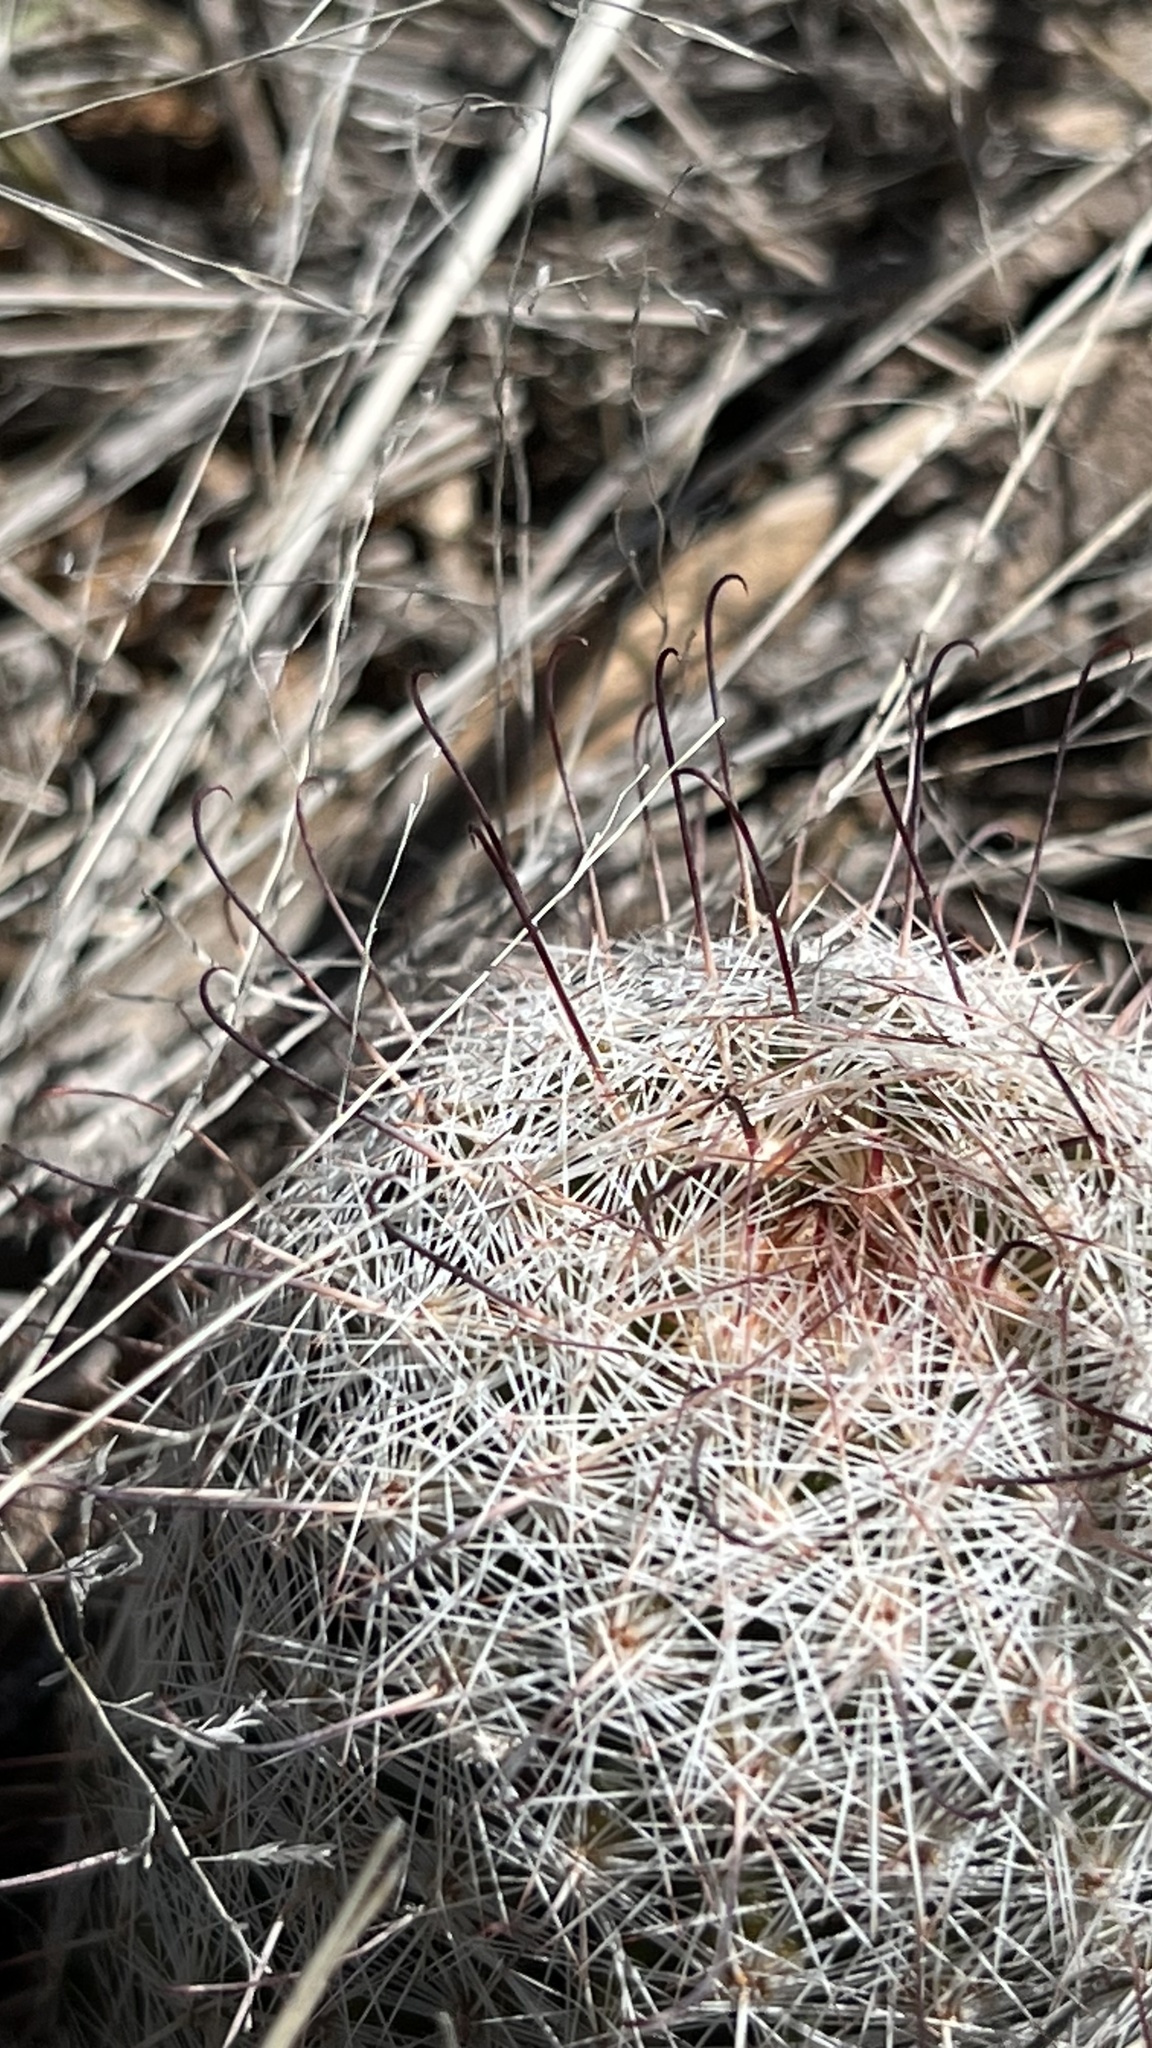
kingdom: Plantae
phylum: Tracheophyta
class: Magnoliopsida
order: Caryophyllales
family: Cactaceae
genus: Cochemiea
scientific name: Cochemiea grahamii
